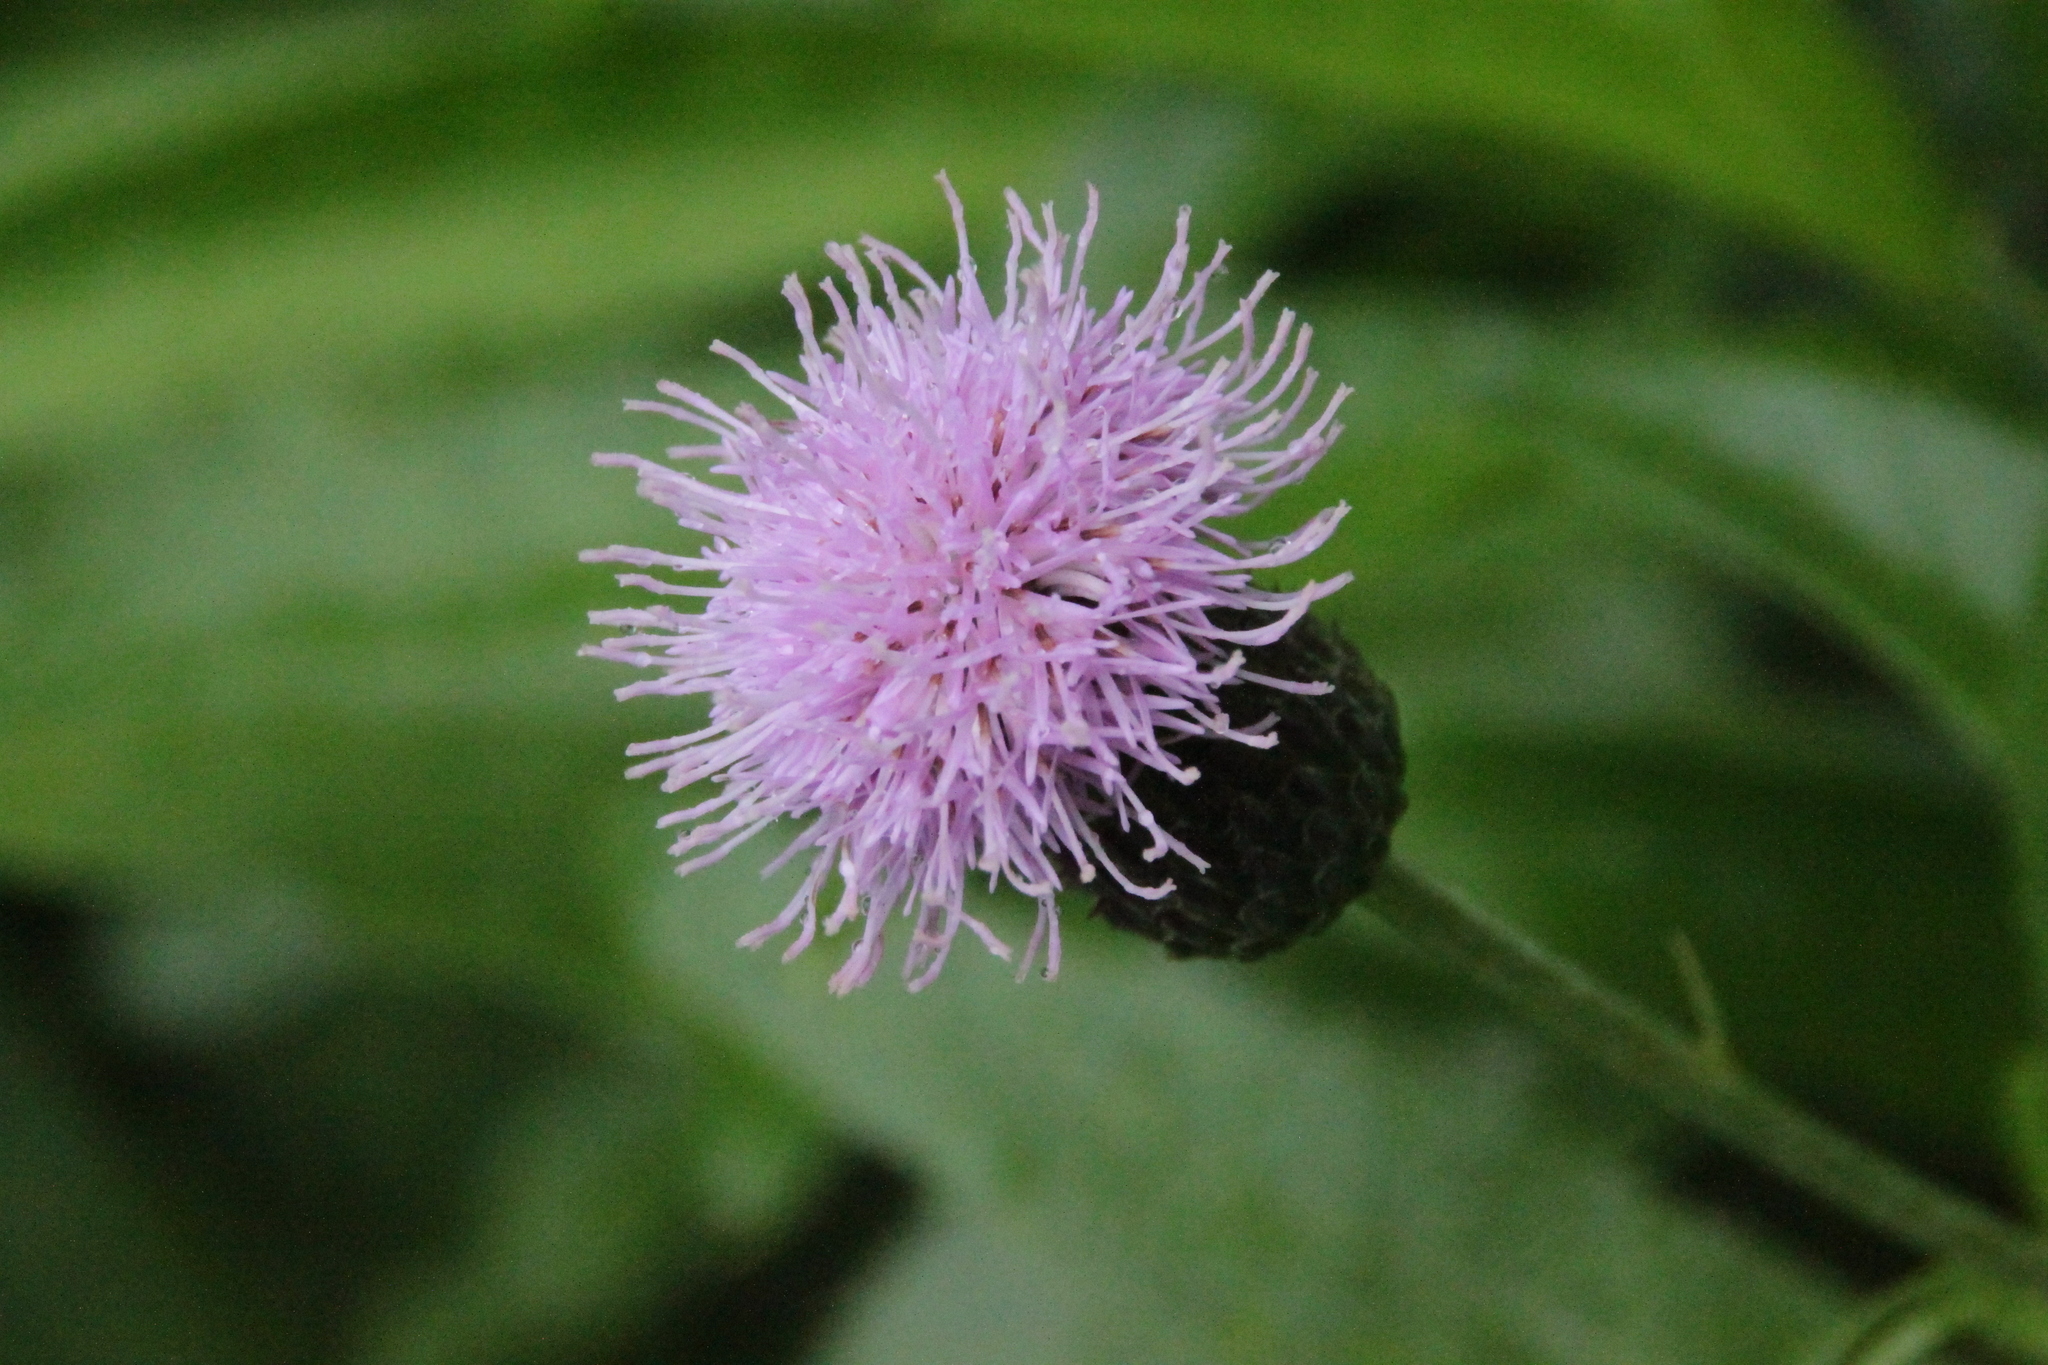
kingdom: Plantae
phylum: Tracheophyta
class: Magnoliopsida
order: Asterales
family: Asteraceae
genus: Cirsium
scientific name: Cirsium arvense
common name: Creeping thistle
